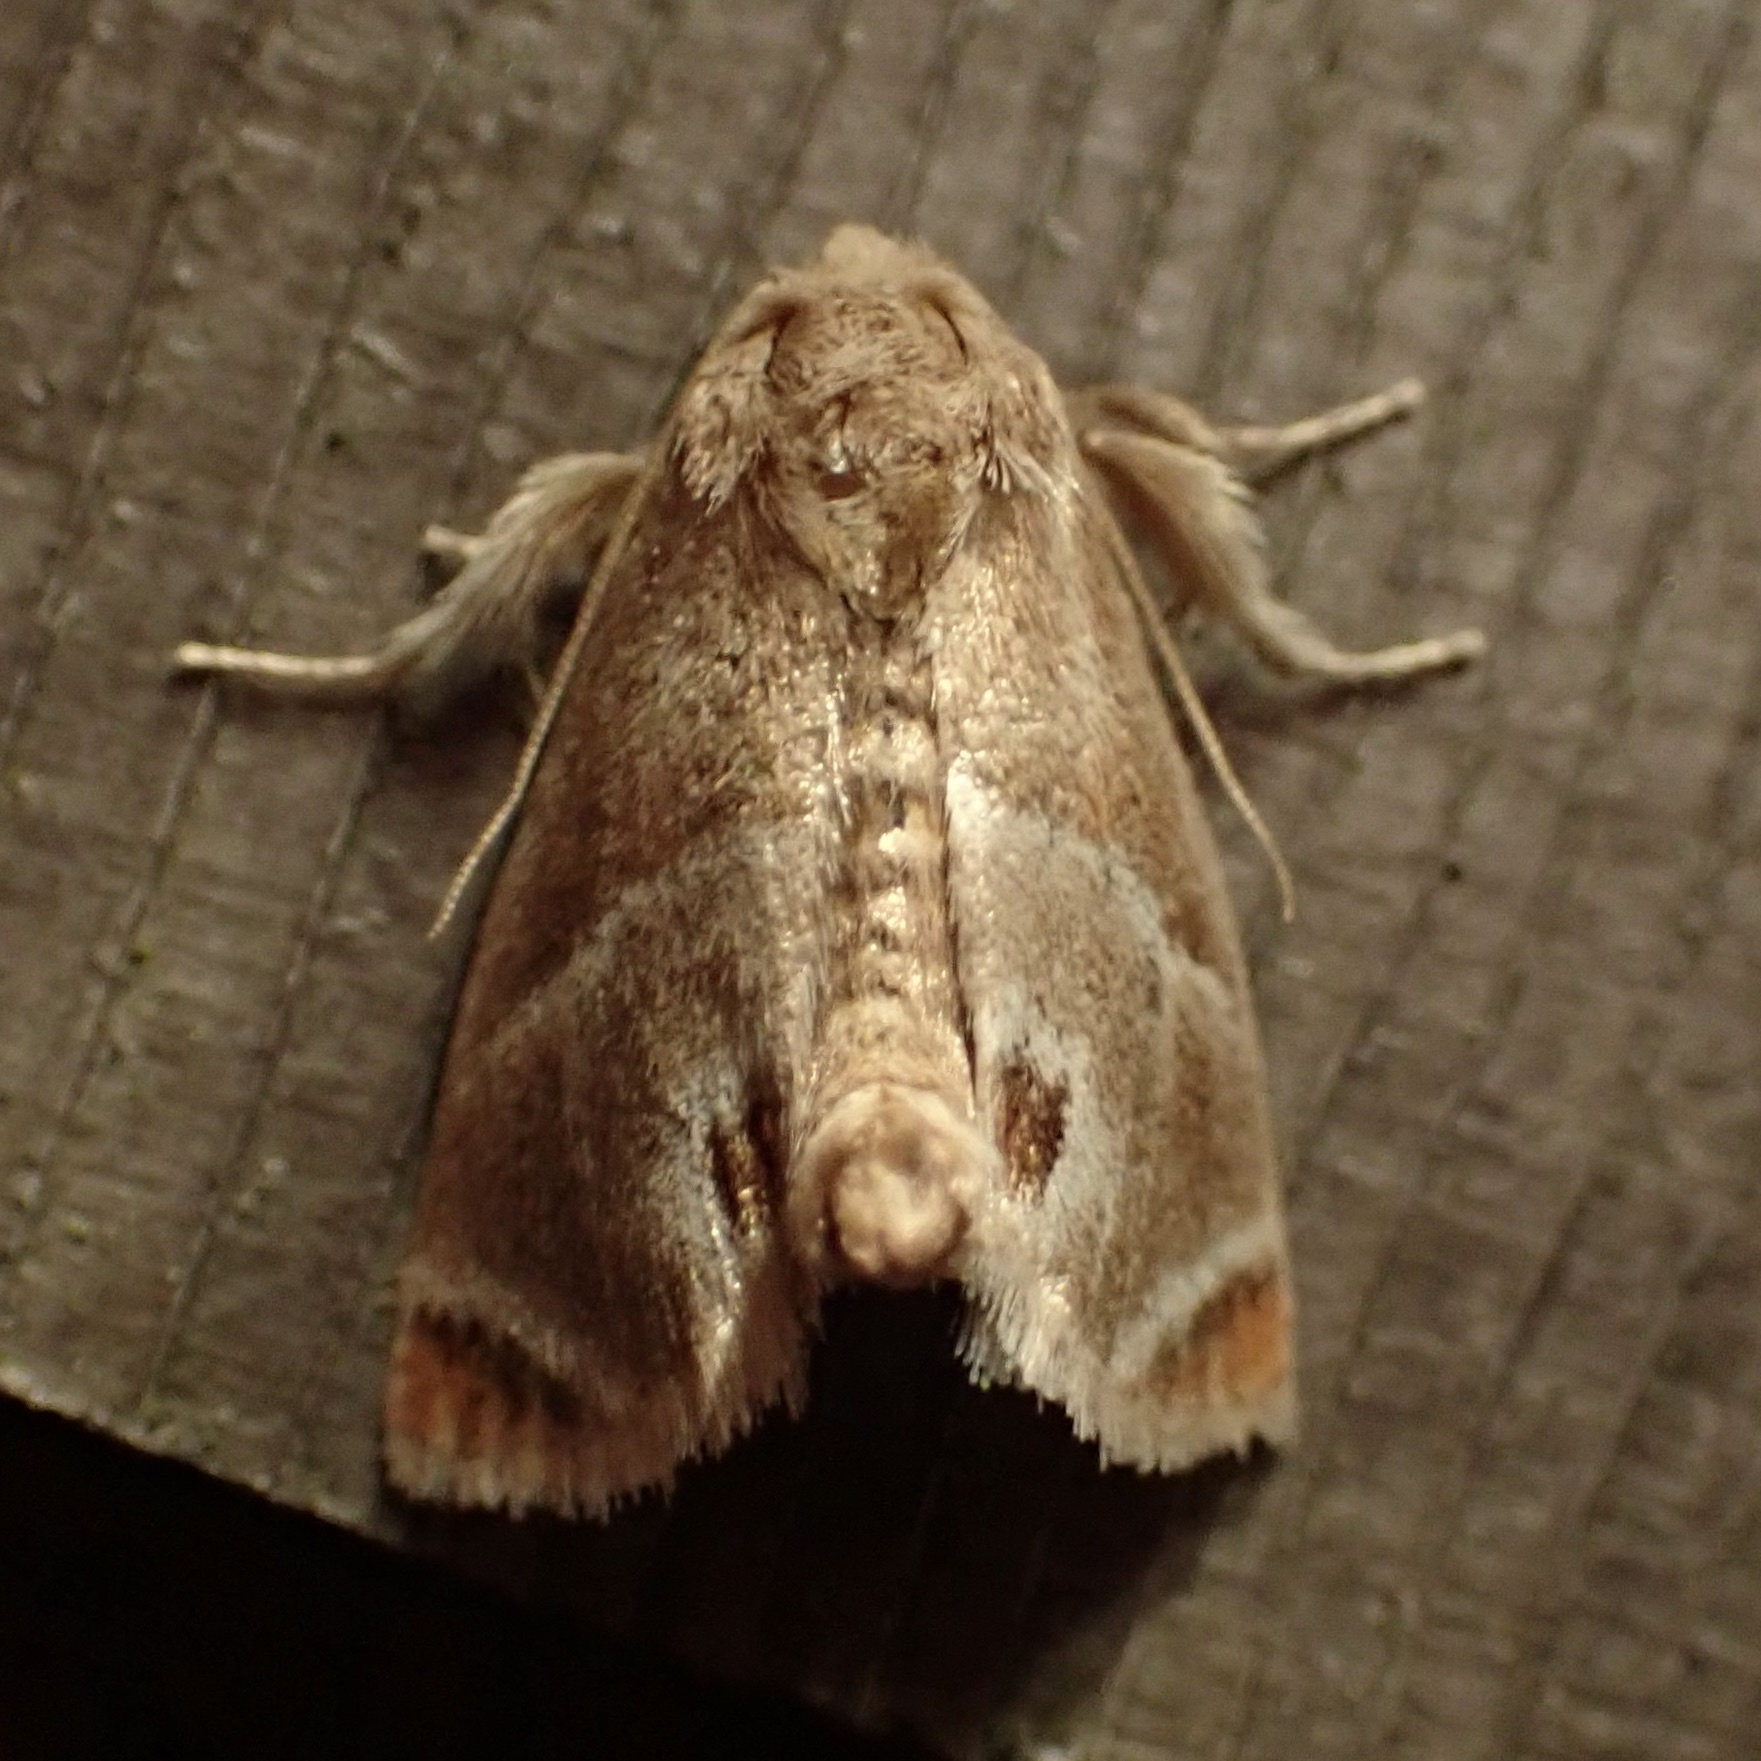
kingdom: Animalia
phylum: Arthropoda
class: Insecta
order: Lepidoptera
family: Limacodidae
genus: Apoda
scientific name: Apoda biguttata
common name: Shagreened slug moth
